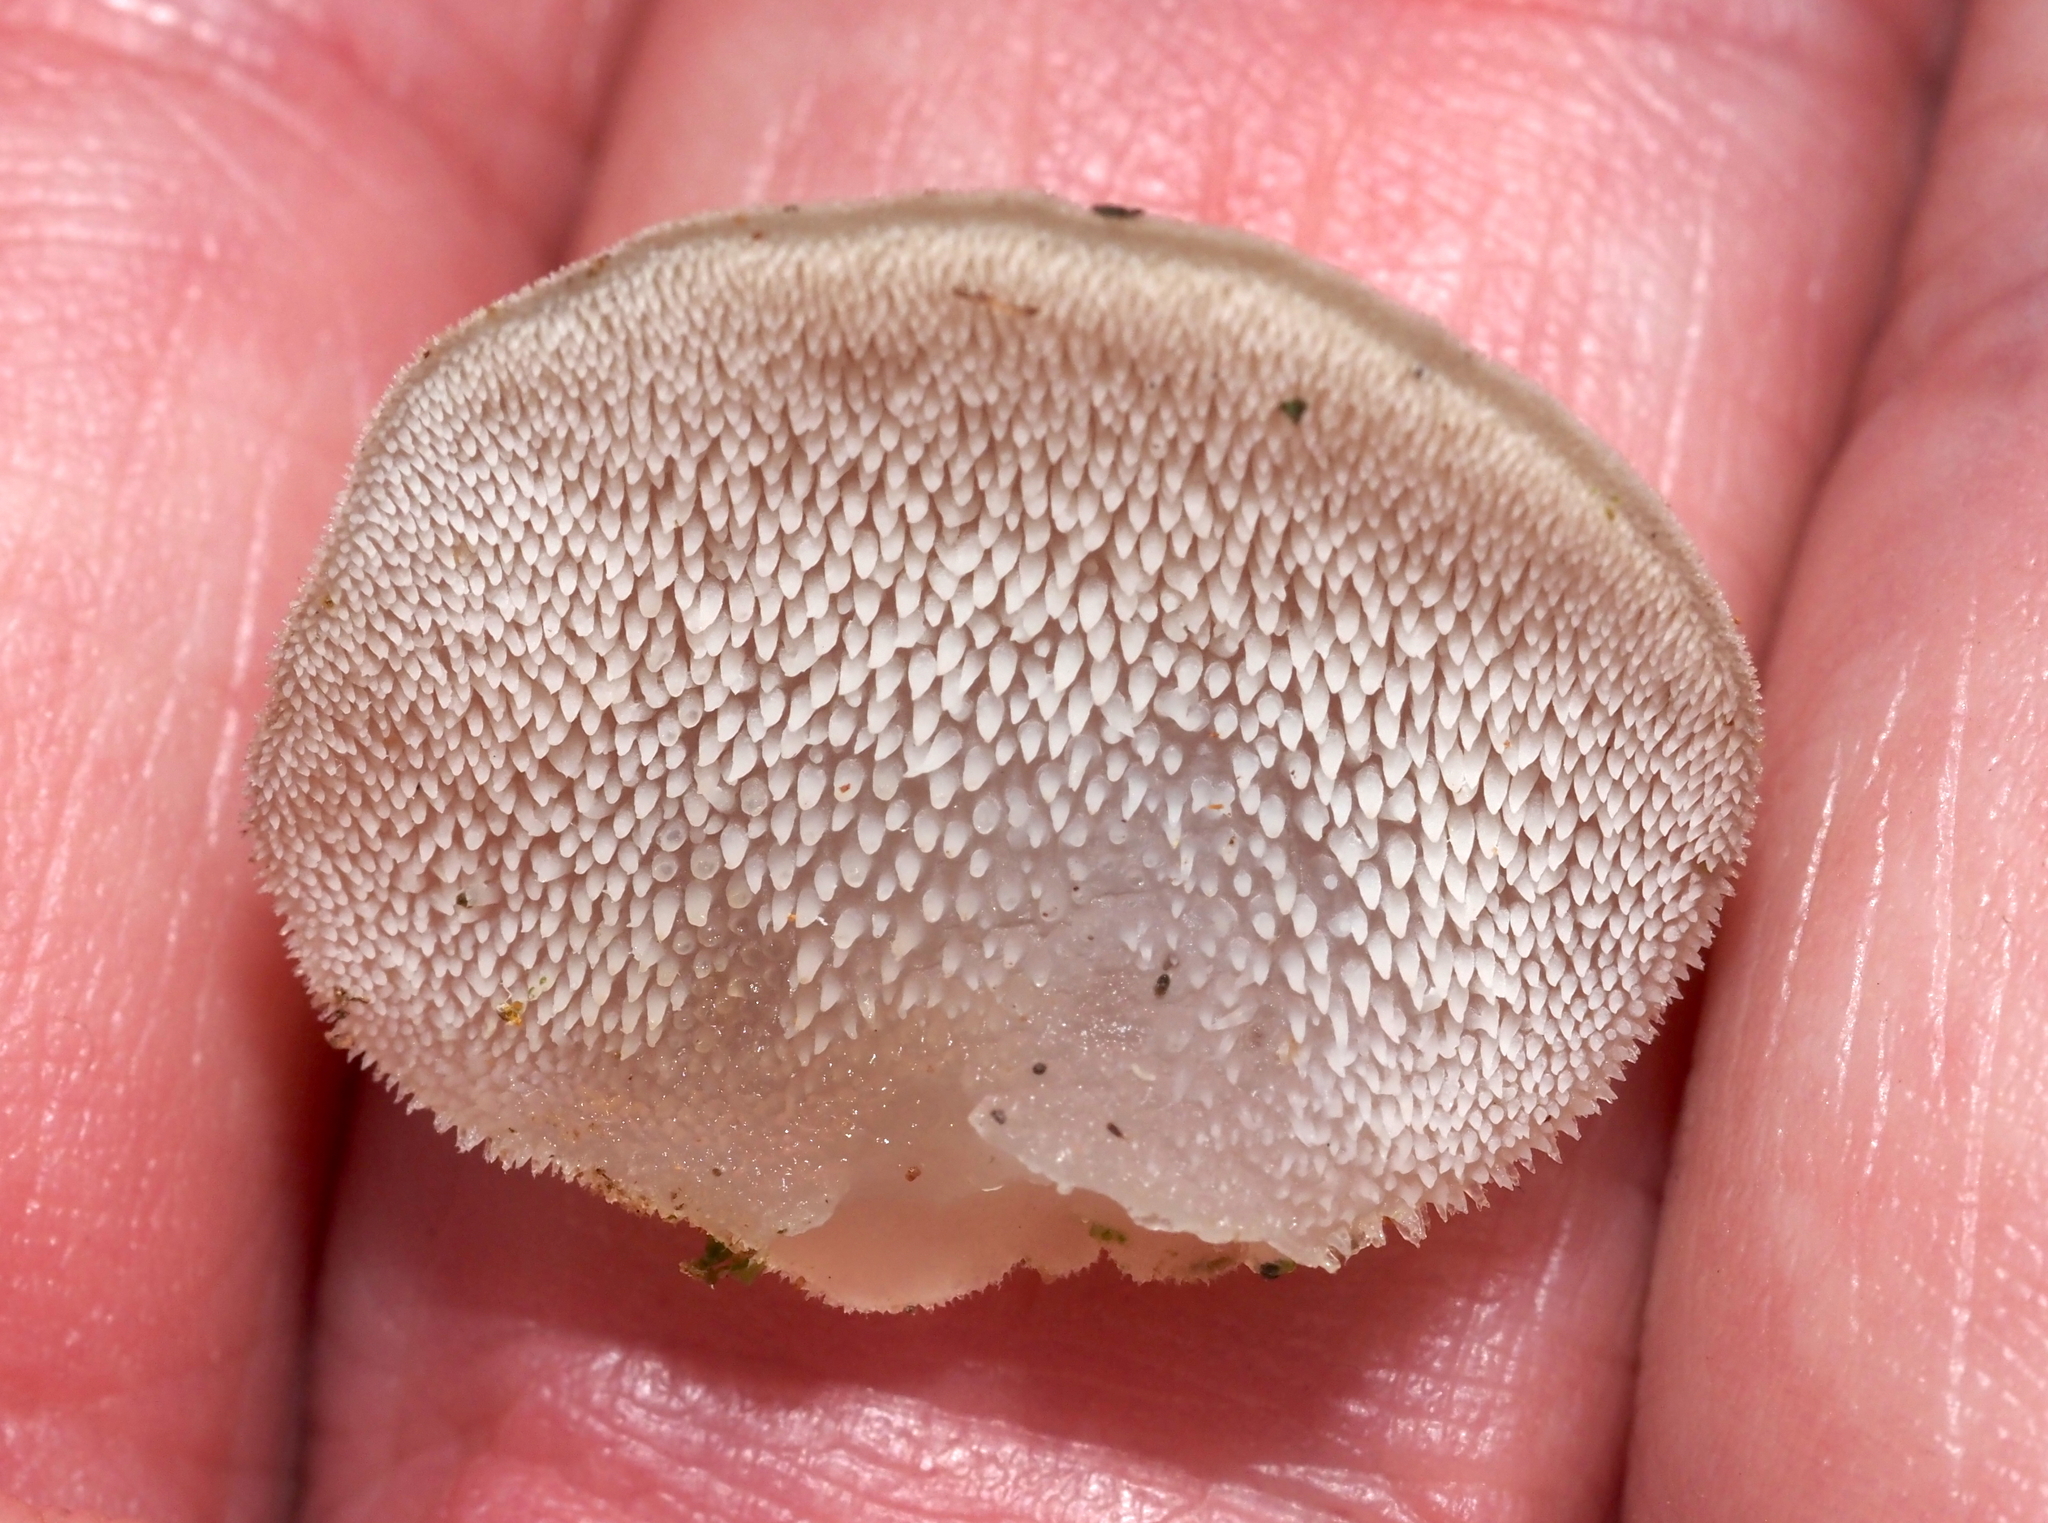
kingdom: Fungi
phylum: Basidiomycota
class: Agaricomycetes
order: Auriculariales
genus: Pseudohydnum
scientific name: Pseudohydnum gelatinosum
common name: Jelly tongue
